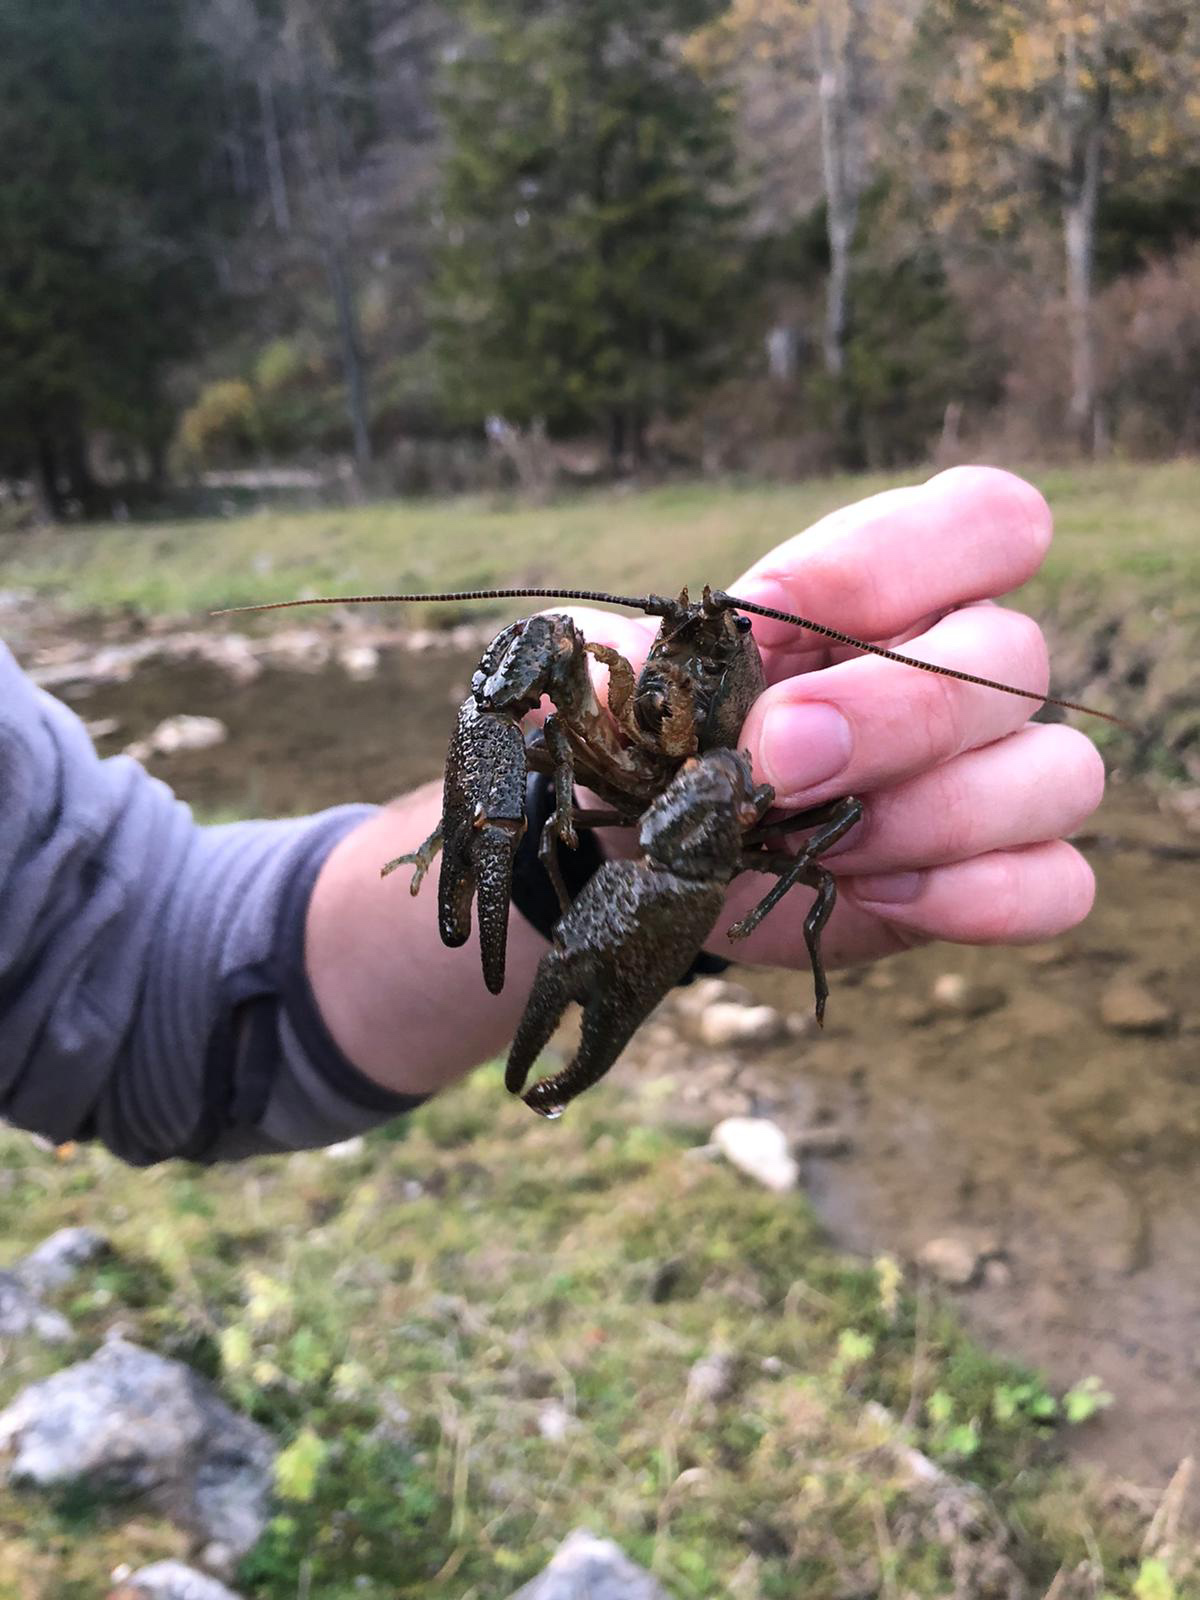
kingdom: Animalia
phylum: Arthropoda
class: Malacostraca
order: Decapoda
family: Astacidae
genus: Austropotamobius
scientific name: Austropotamobius torrentium
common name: Stone crayfish
